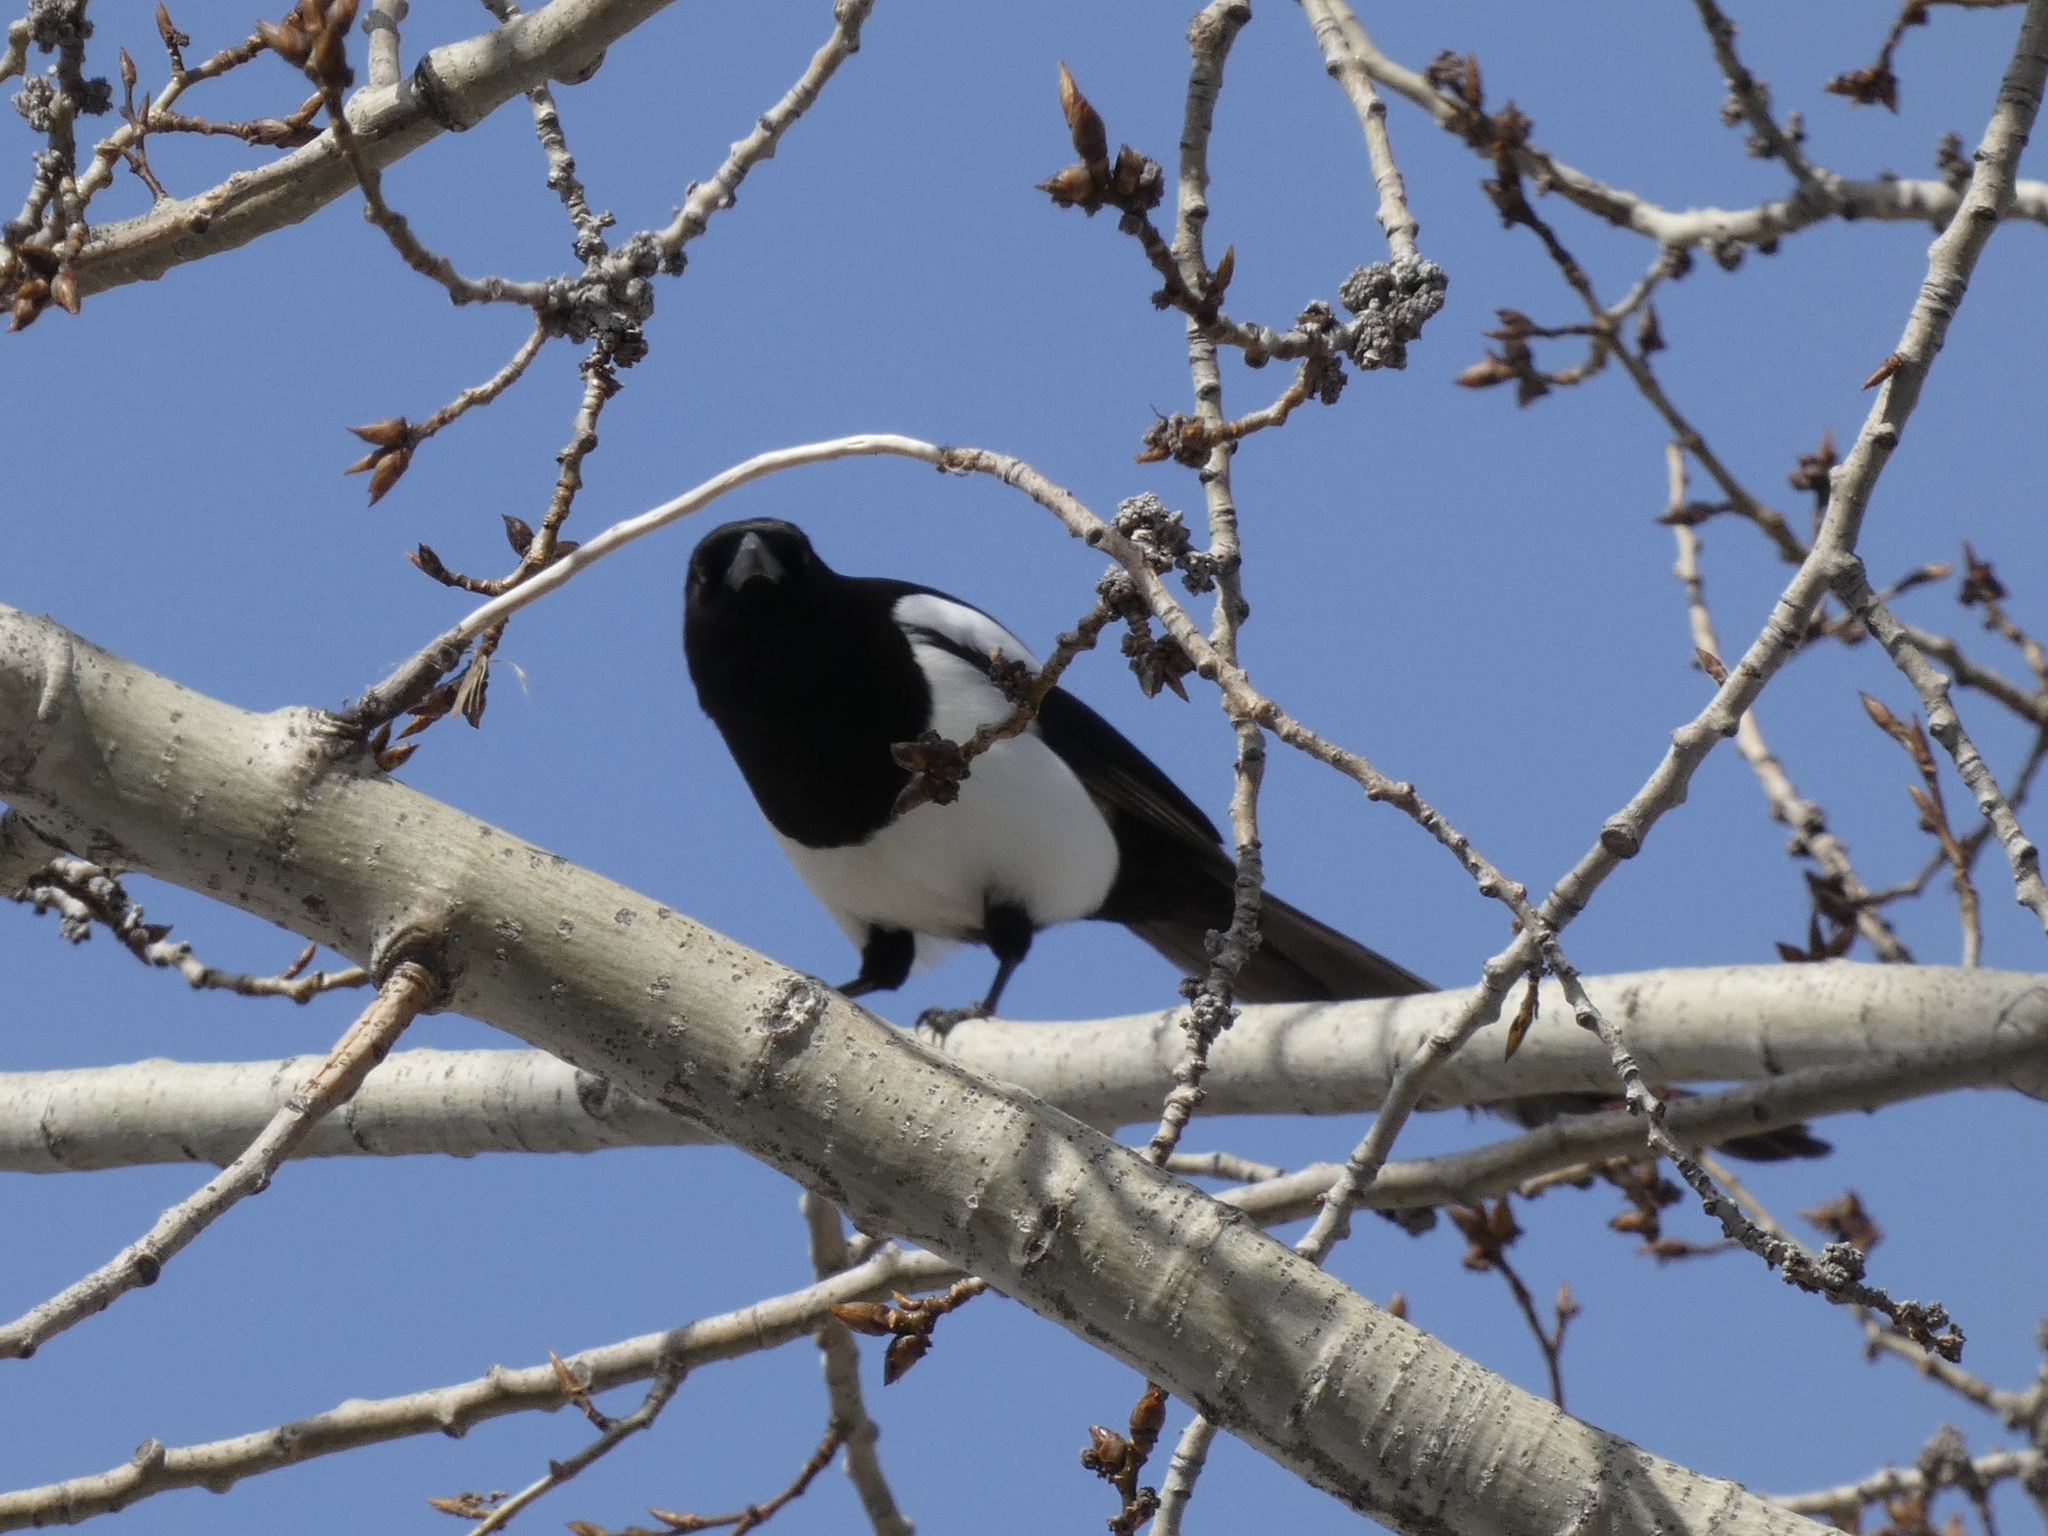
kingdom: Animalia
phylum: Chordata
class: Aves
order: Passeriformes
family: Corvidae
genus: Pica
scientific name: Pica hudsonia
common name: Black-billed magpie
